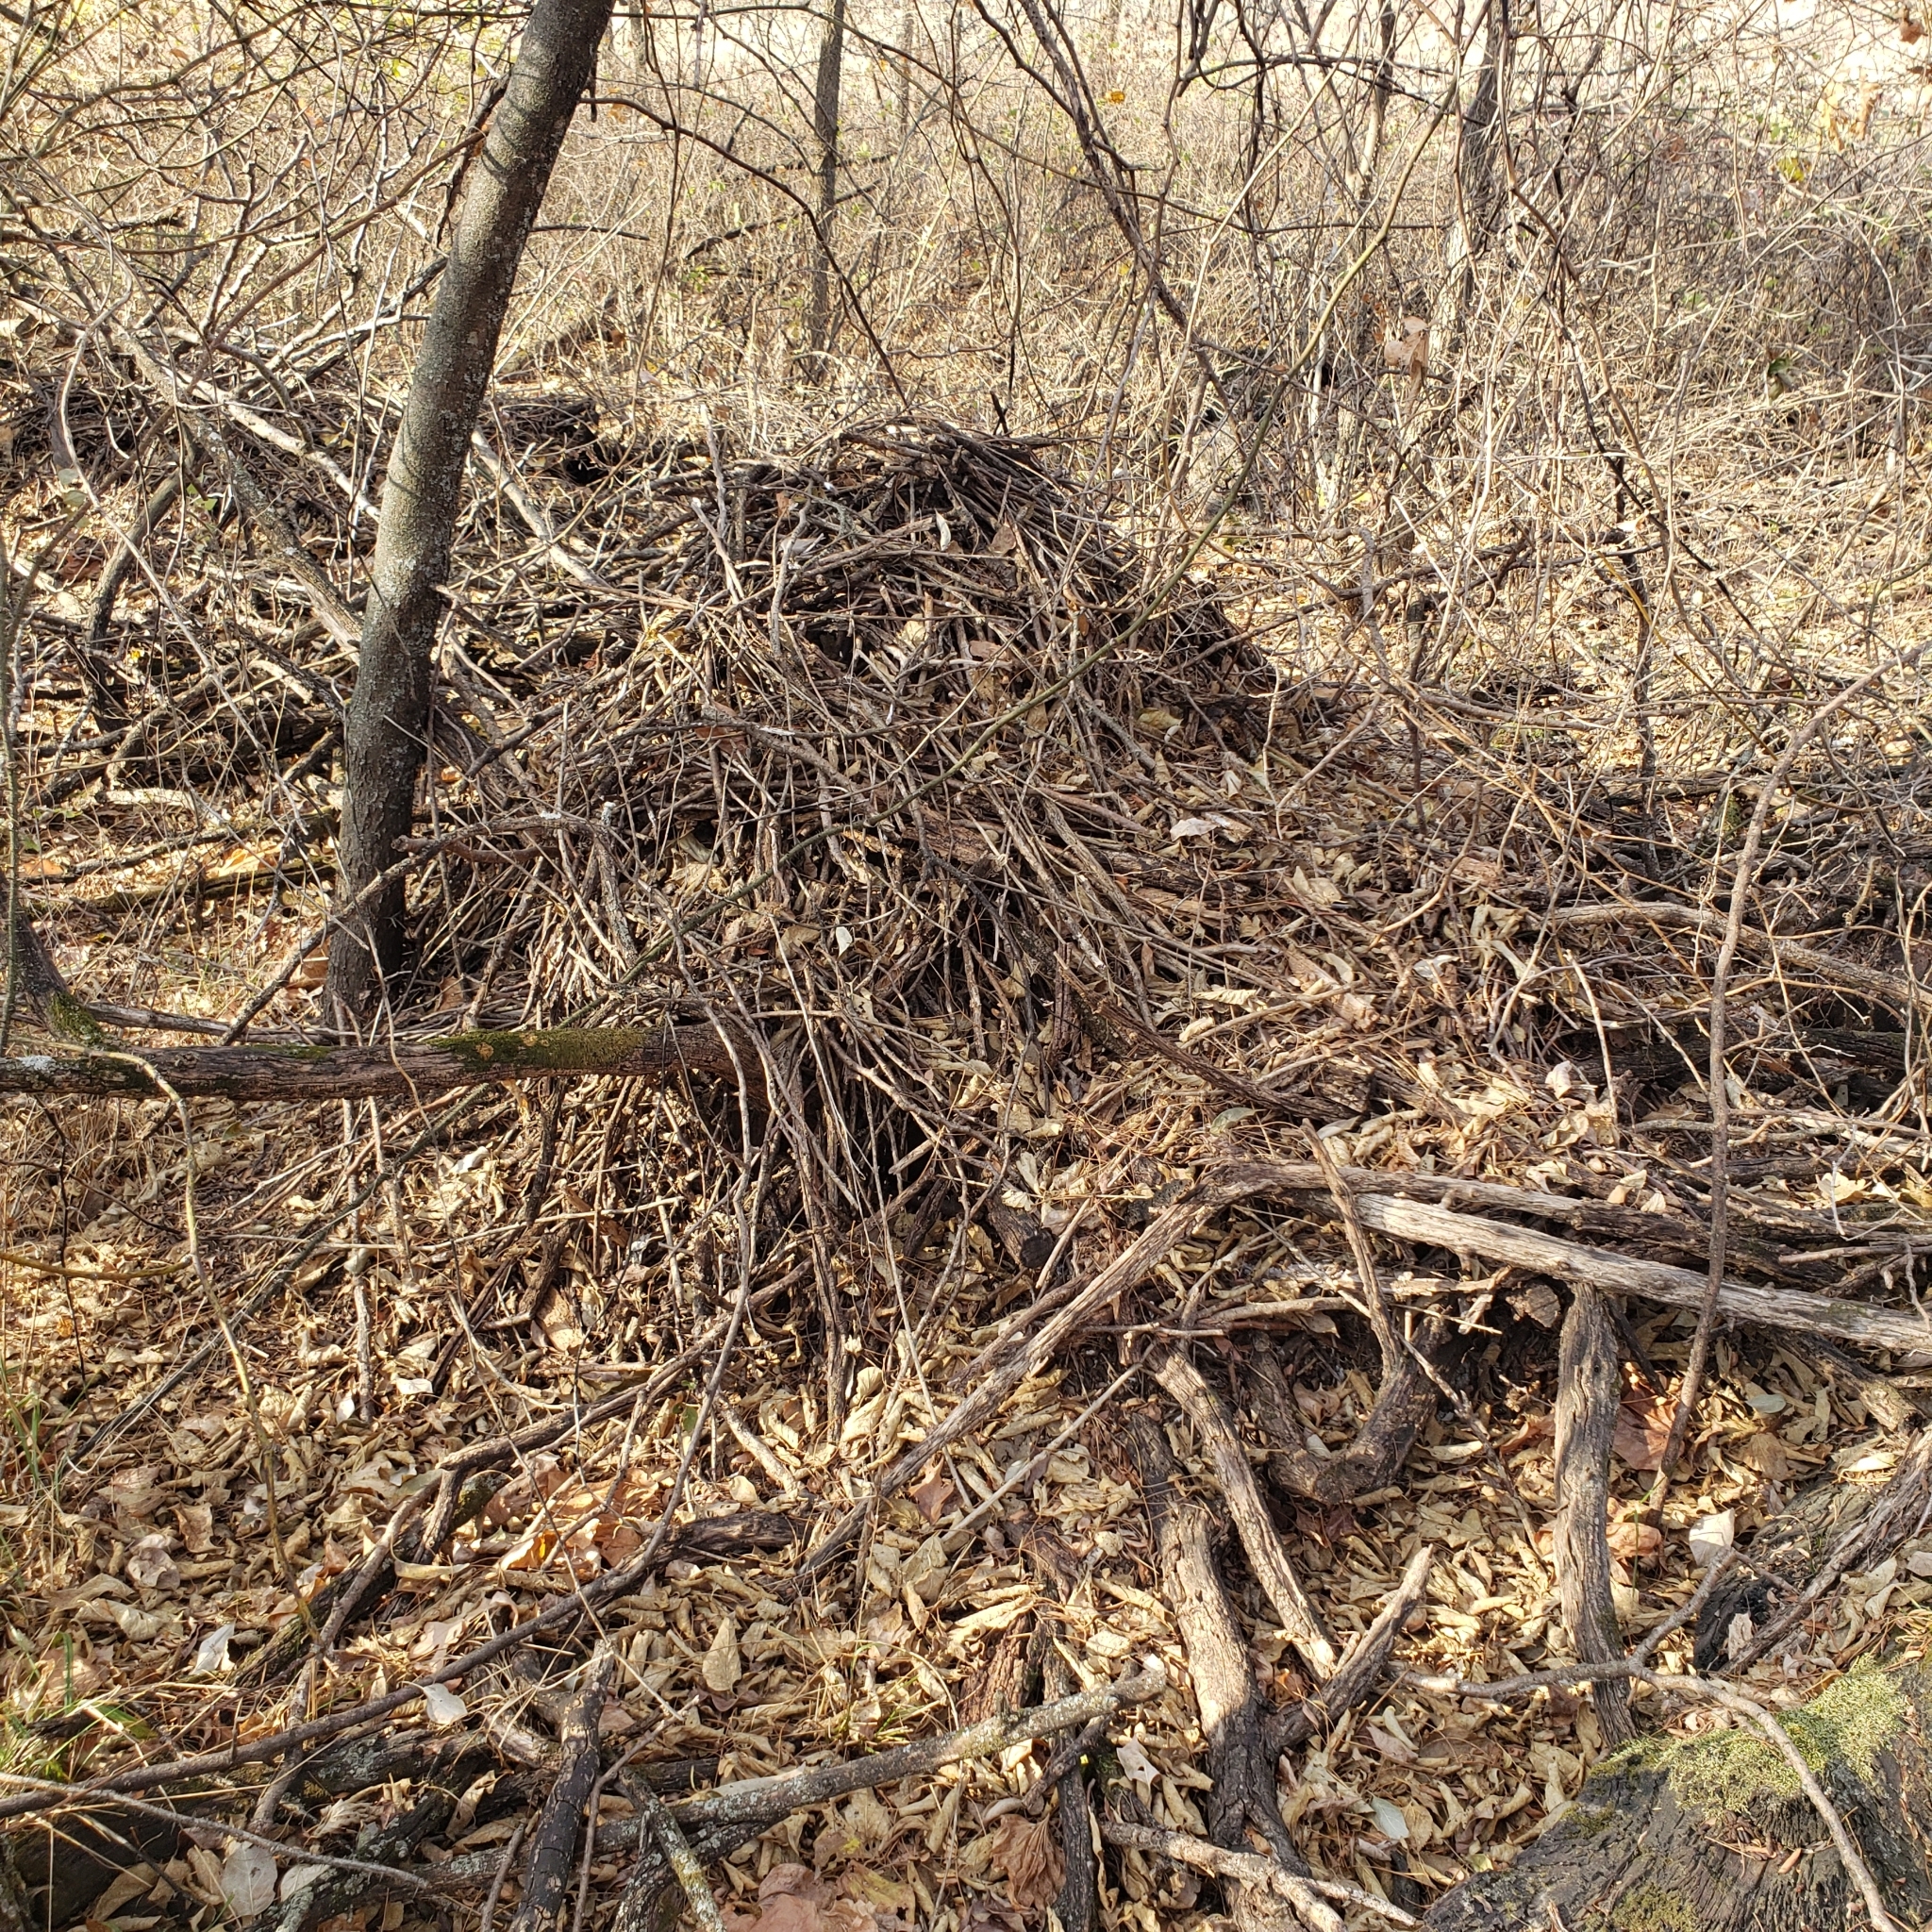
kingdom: Animalia
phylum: Chordata
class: Mammalia
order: Rodentia
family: Cricetidae
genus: Neotoma
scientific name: Neotoma floridana
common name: Eastern woodrat
